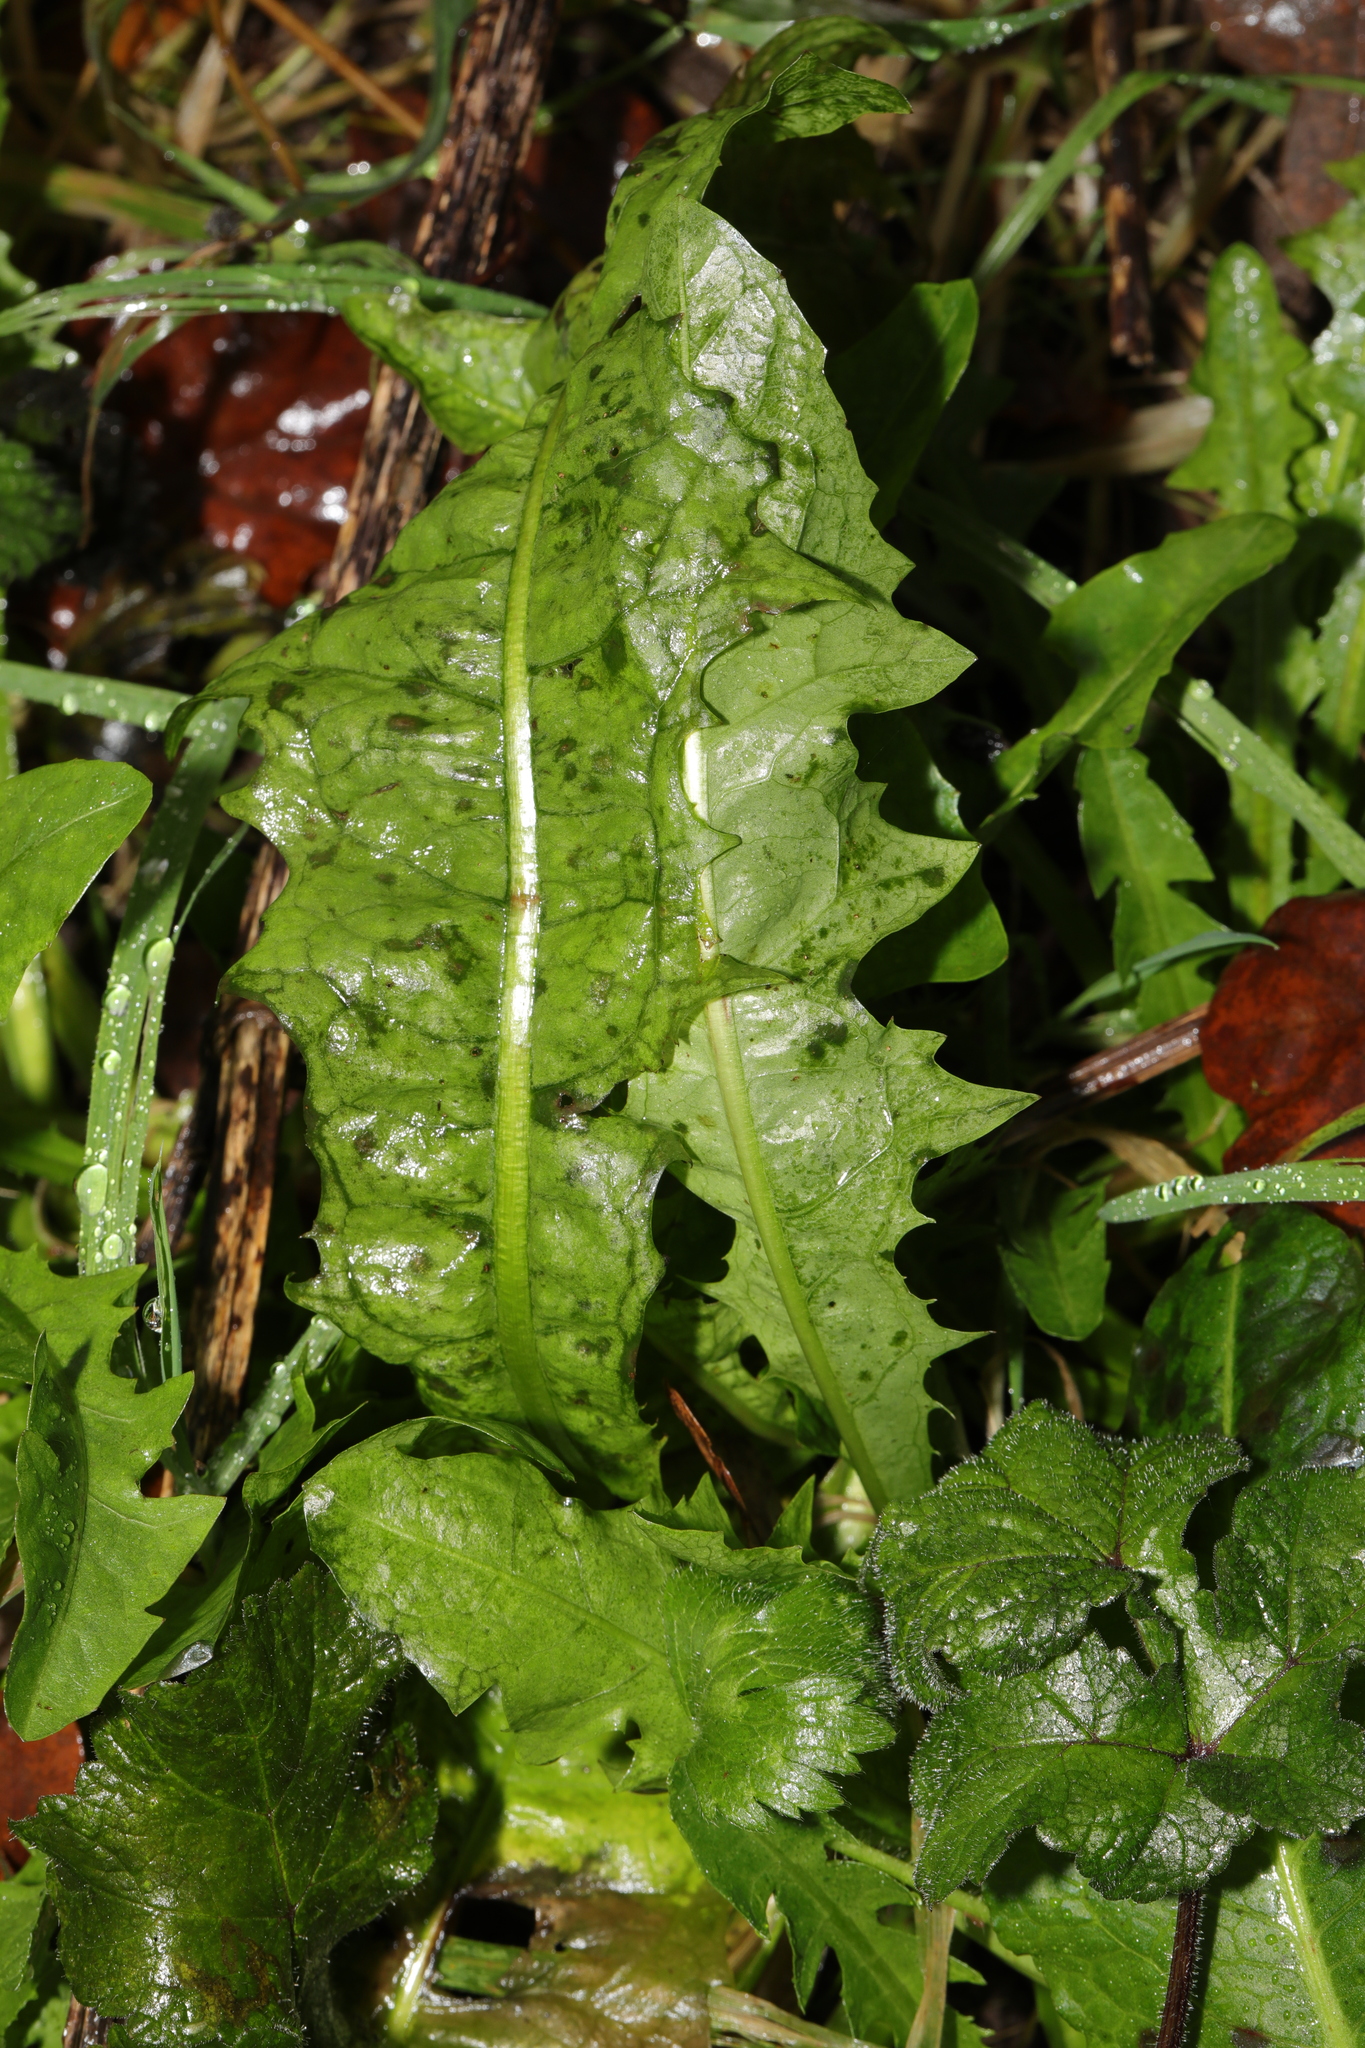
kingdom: Plantae
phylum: Tracheophyta
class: Magnoliopsida
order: Asterales
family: Asteraceae
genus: Taraxacum
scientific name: Taraxacum officinale
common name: Common dandelion
